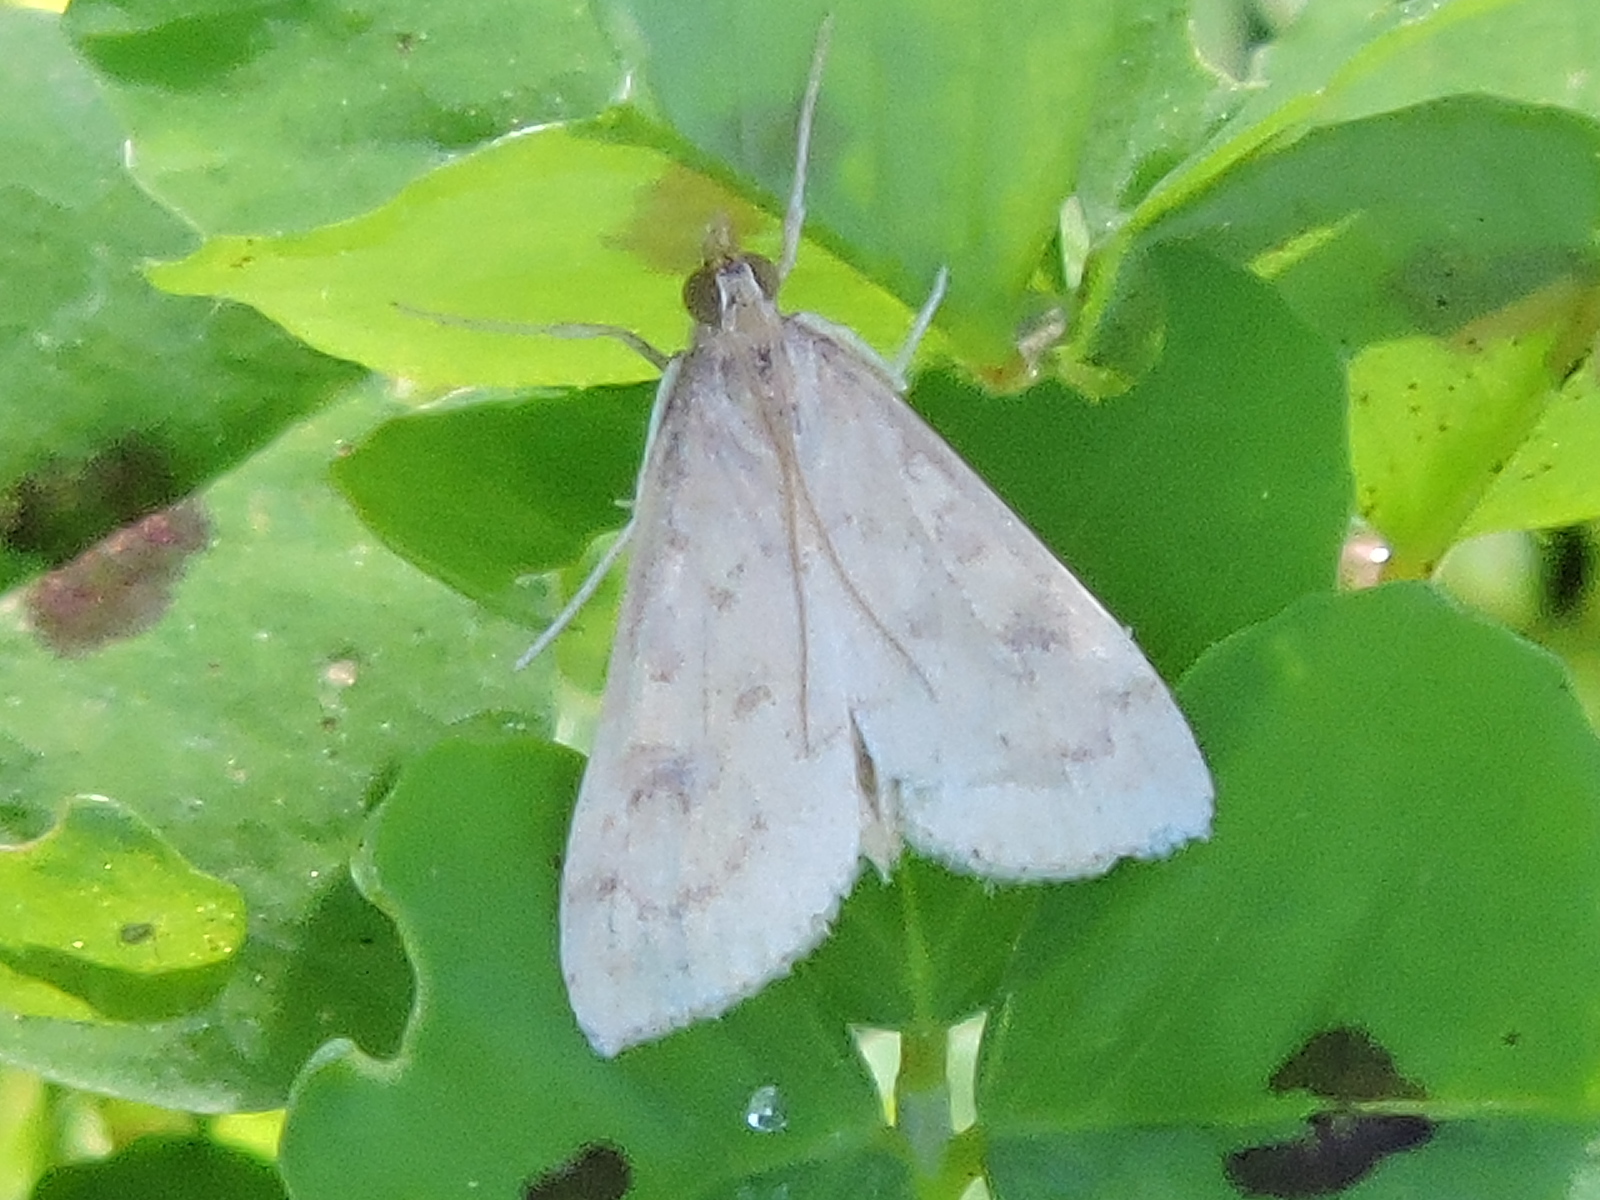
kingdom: Animalia
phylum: Arthropoda
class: Insecta
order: Lepidoptera
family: Crambidae
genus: Udea
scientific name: Udea rubigalis
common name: Celery leaftier moth
